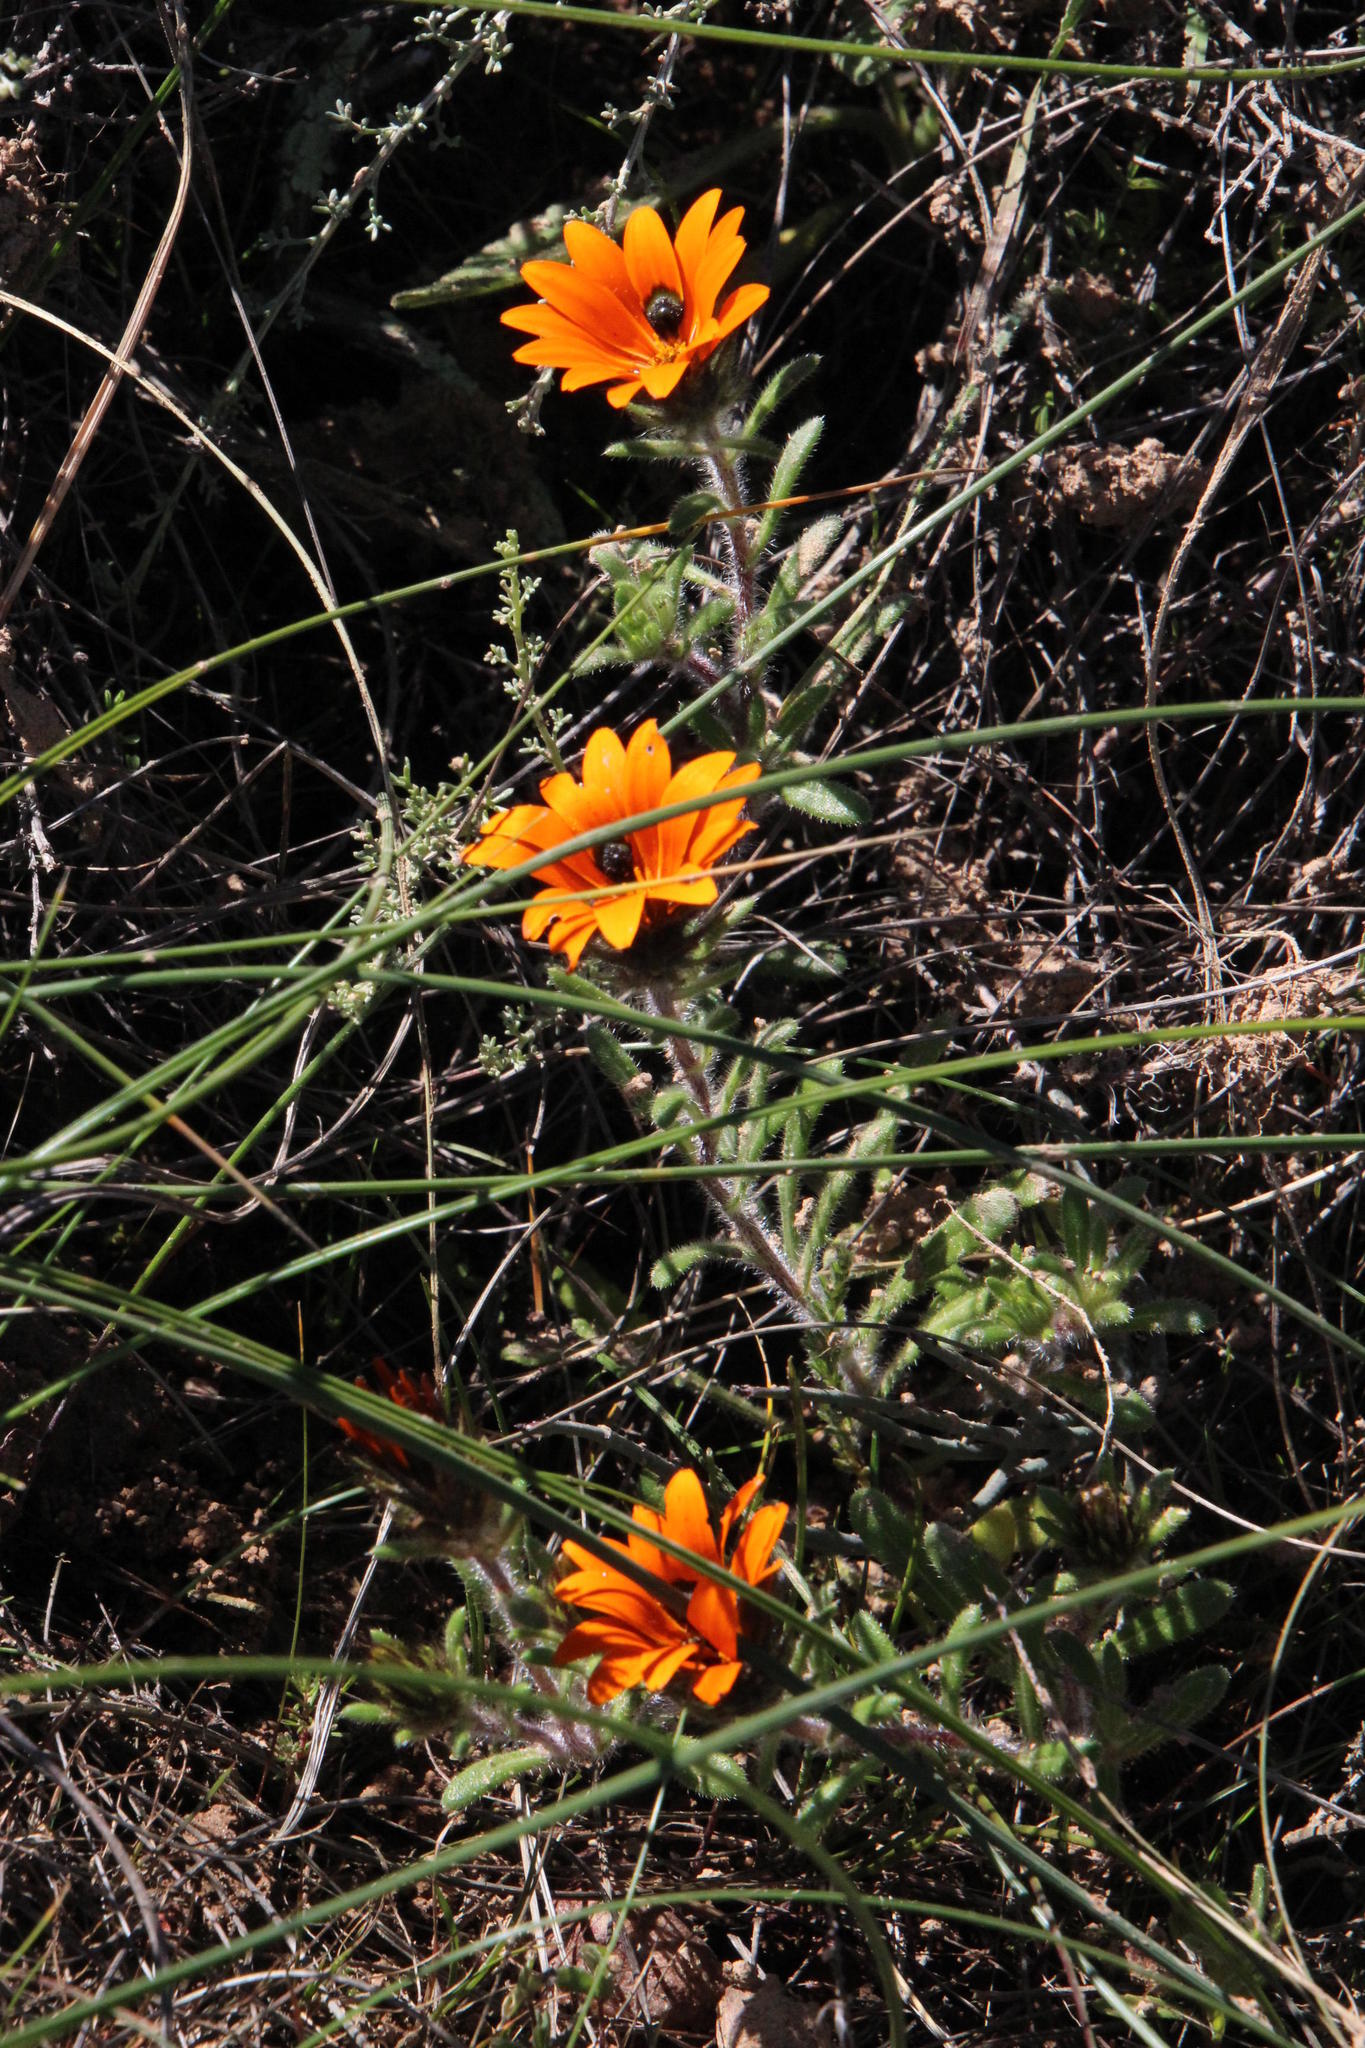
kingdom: Plantae
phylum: Tracheophyta
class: Magnoliopsida
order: Asterales
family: Asteraceae
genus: Gorteria
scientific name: Gorteria diffusa
